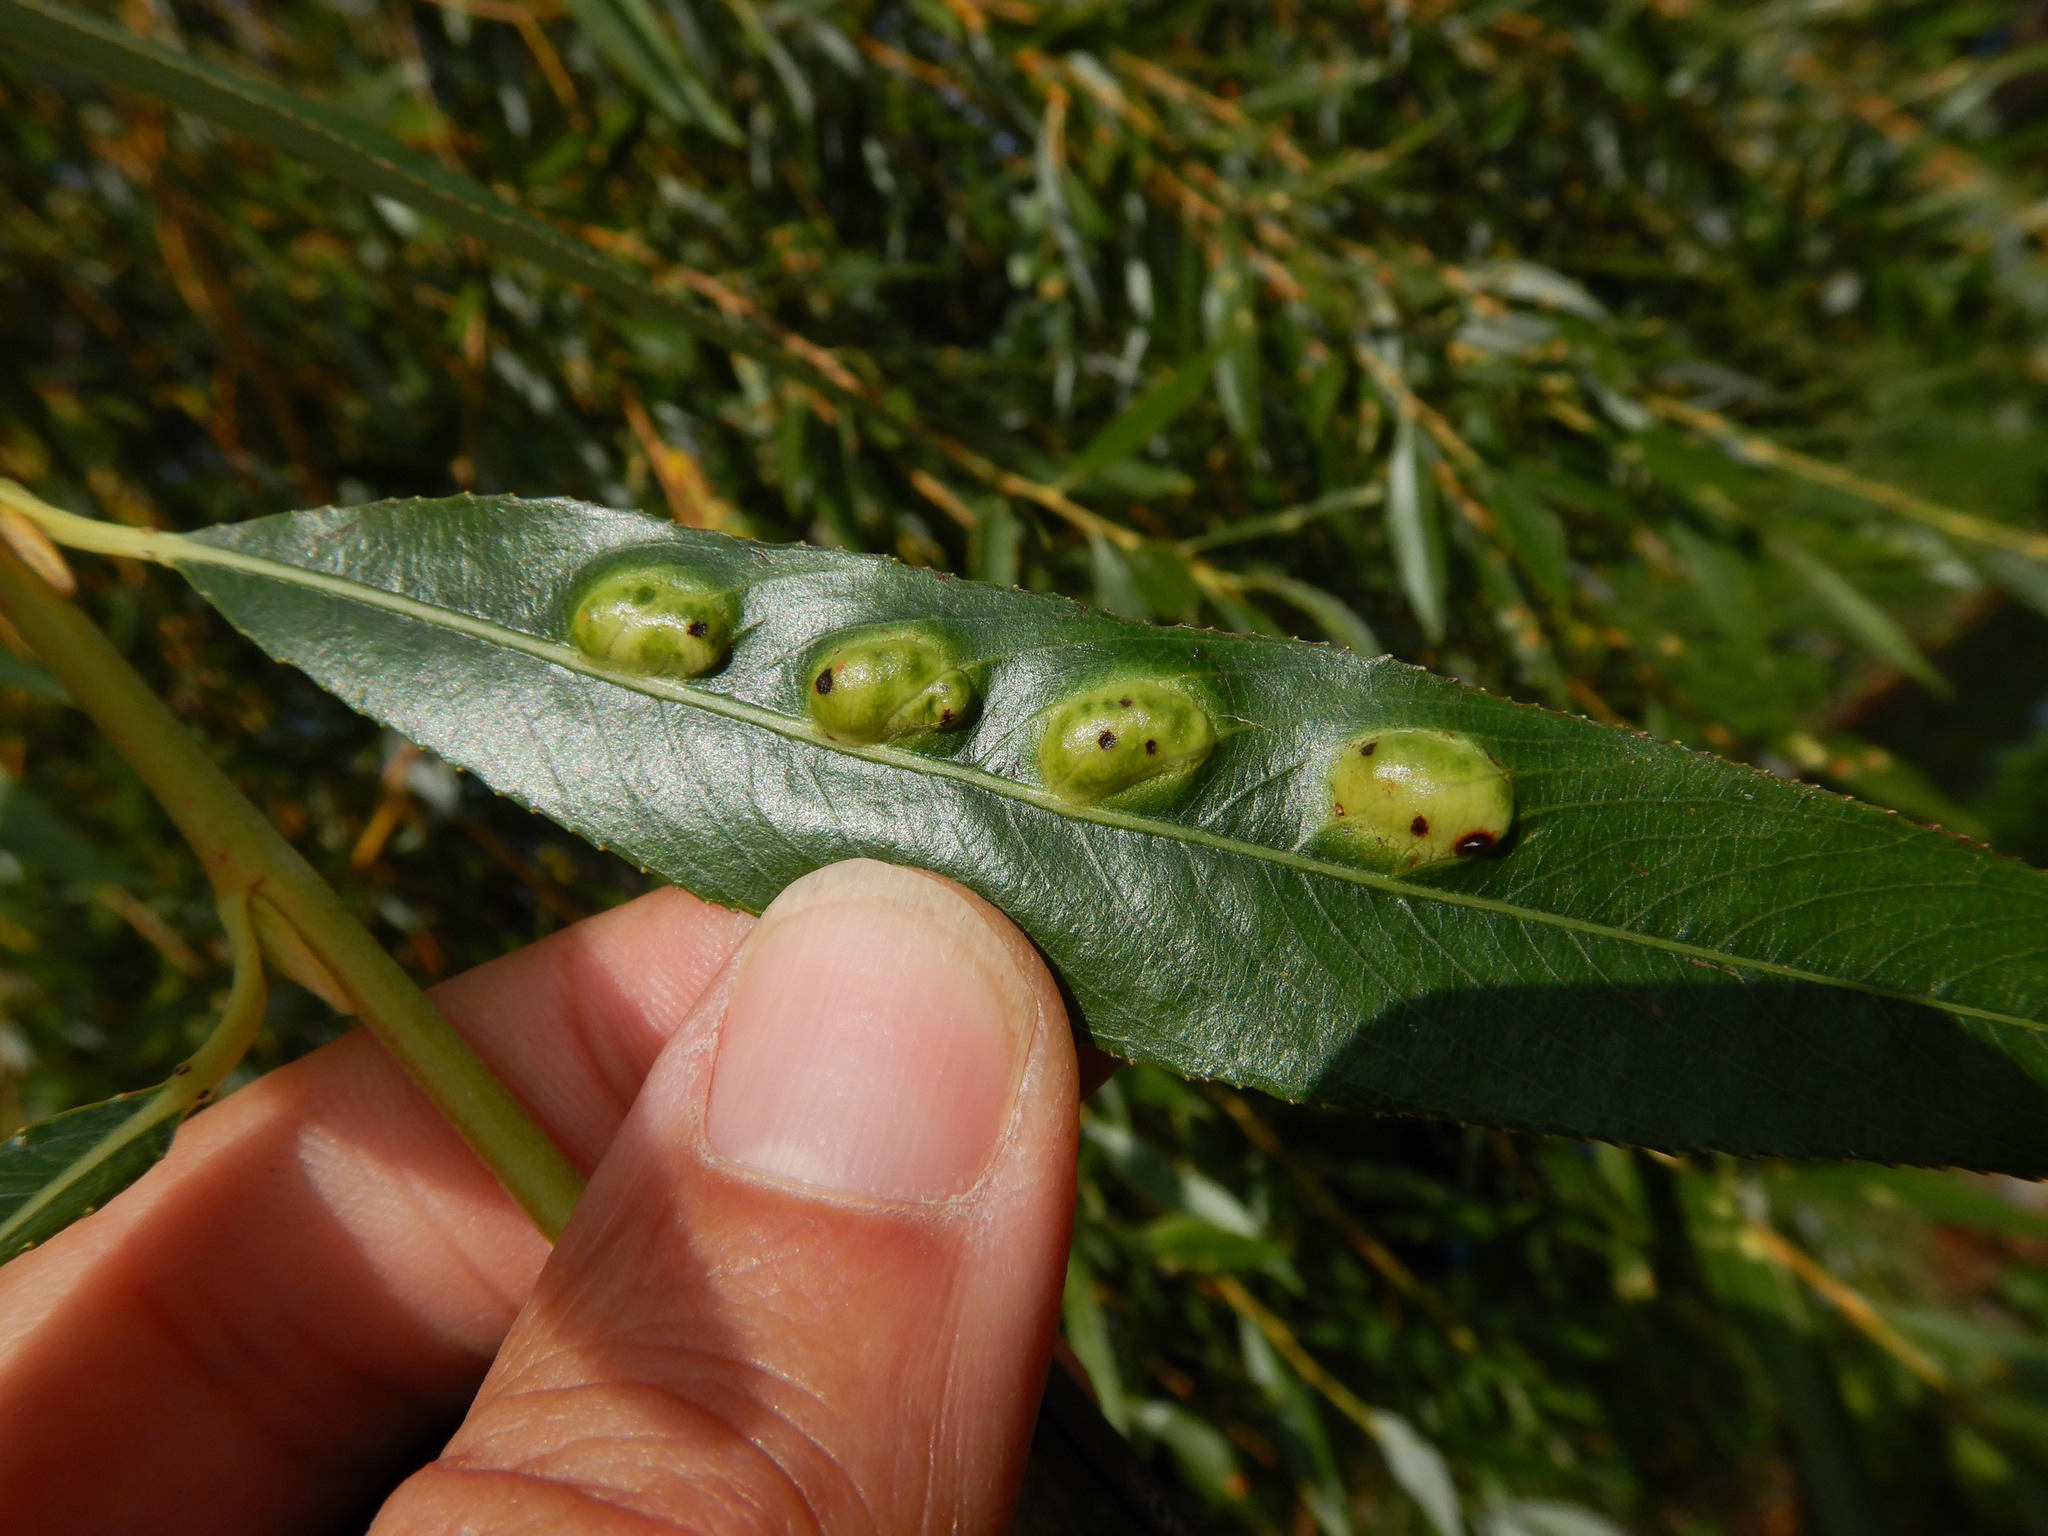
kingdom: Animalia
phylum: Arthropoda
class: Insecta
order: Hymenoptera
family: Tenthredinidae
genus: Pontania
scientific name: Pontania proxima
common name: Common sawfly
